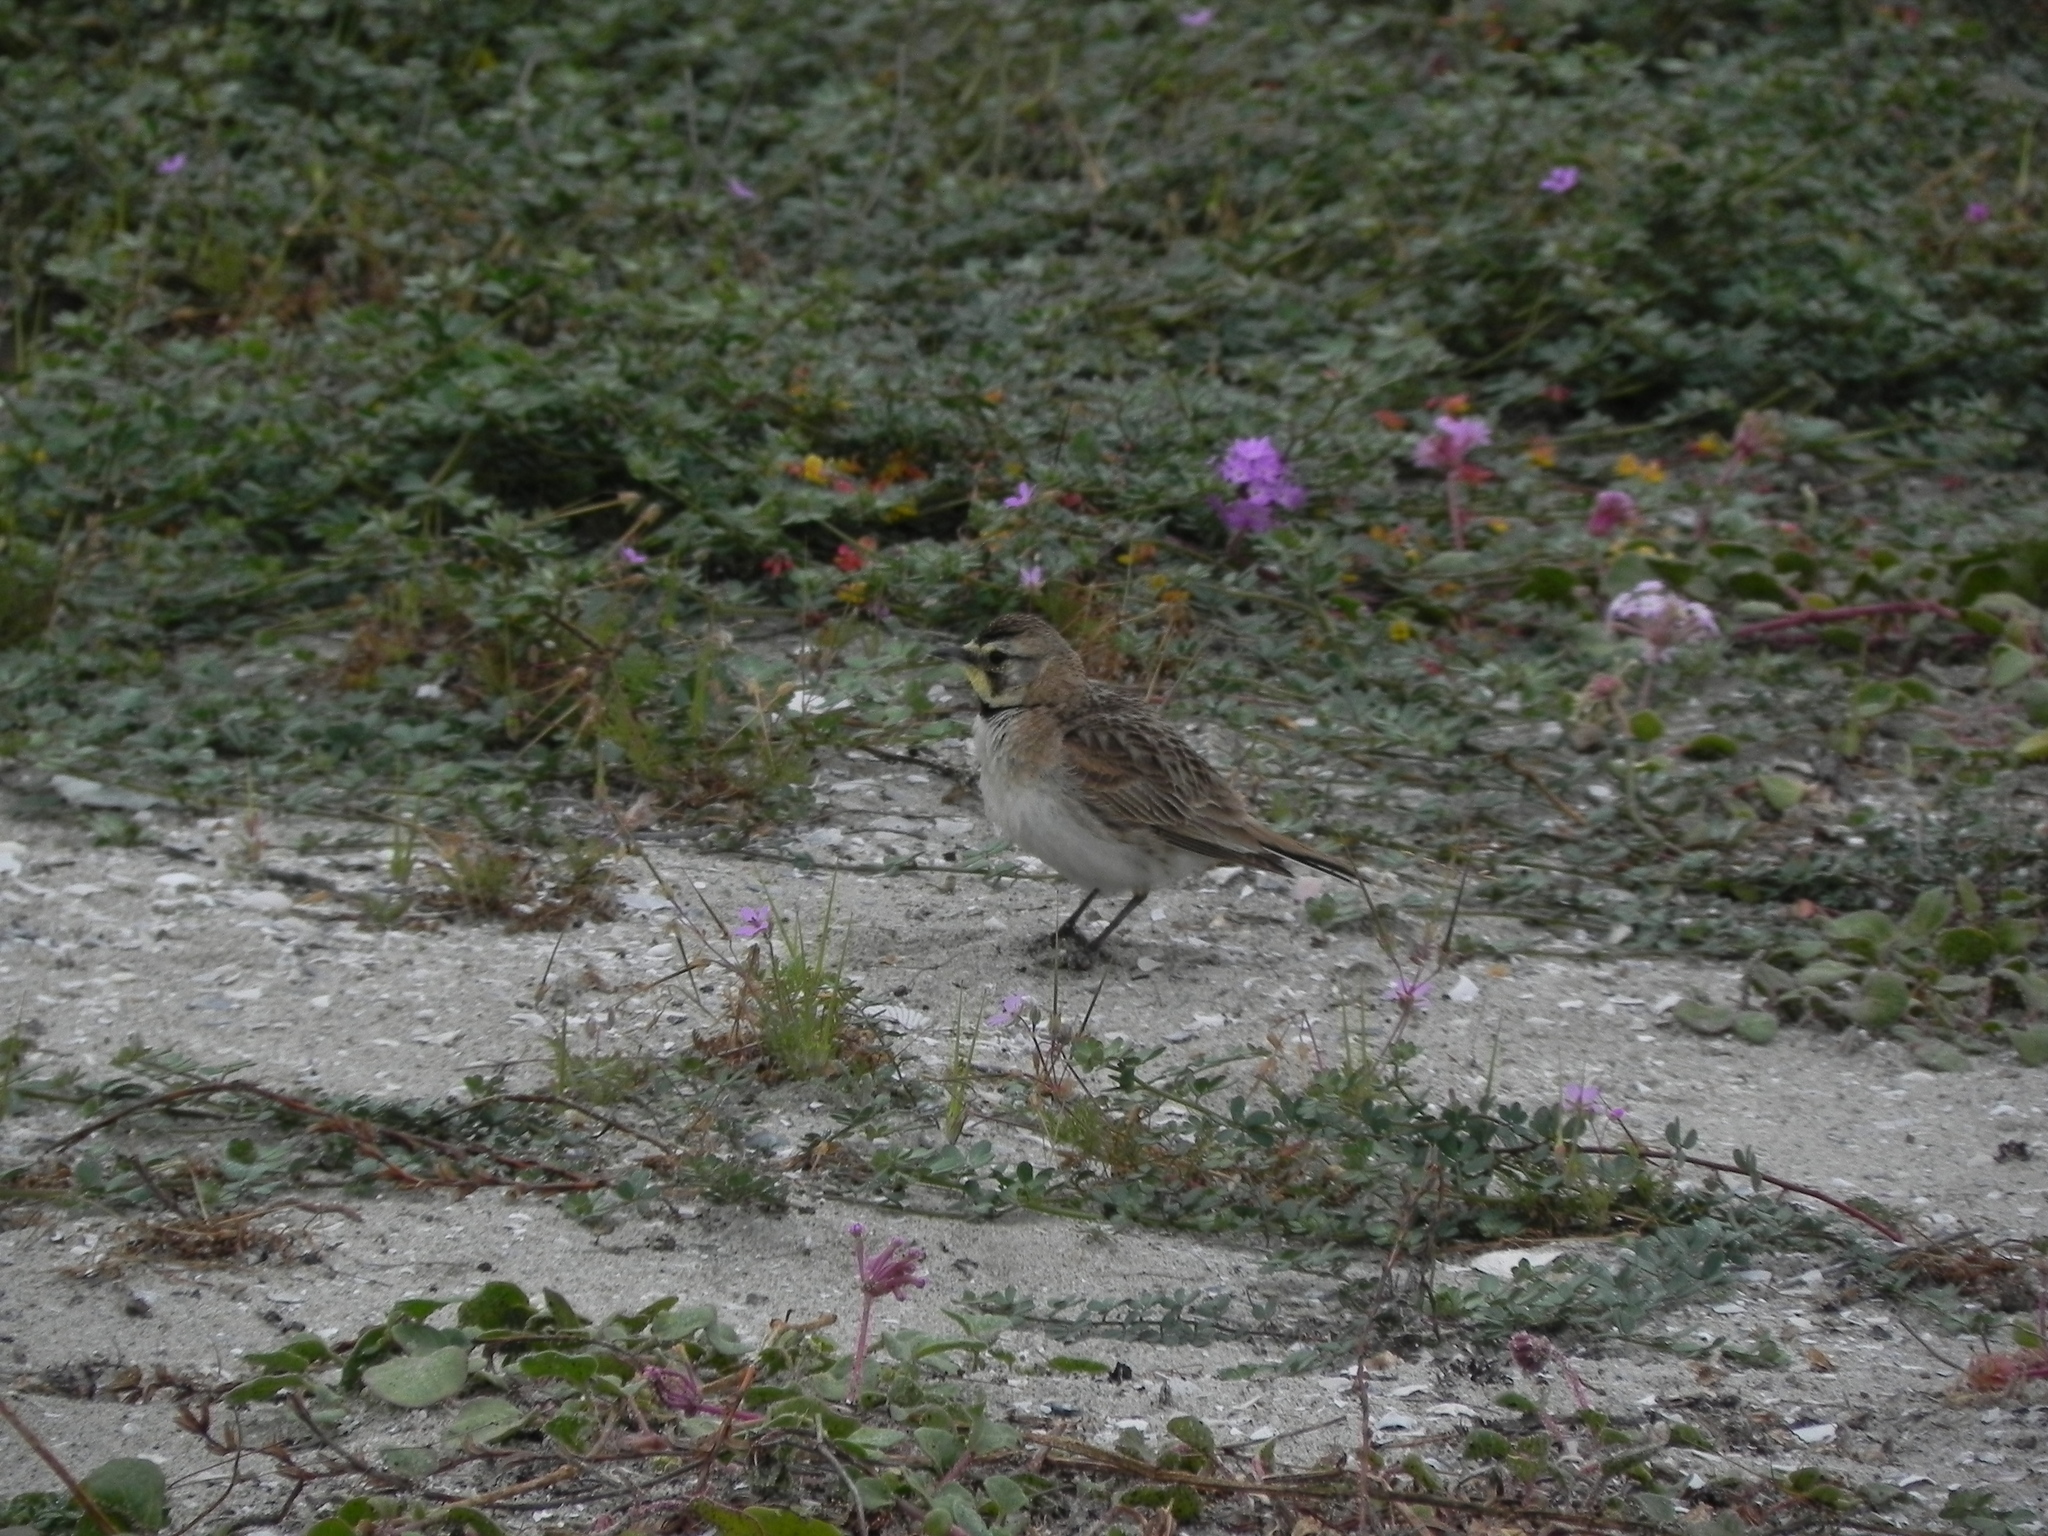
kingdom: Animalia
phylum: Chordata
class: Aves
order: Passeriformes
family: Alaudidae
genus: Eremophila
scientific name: Eremophila alpestris
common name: Horned lark
